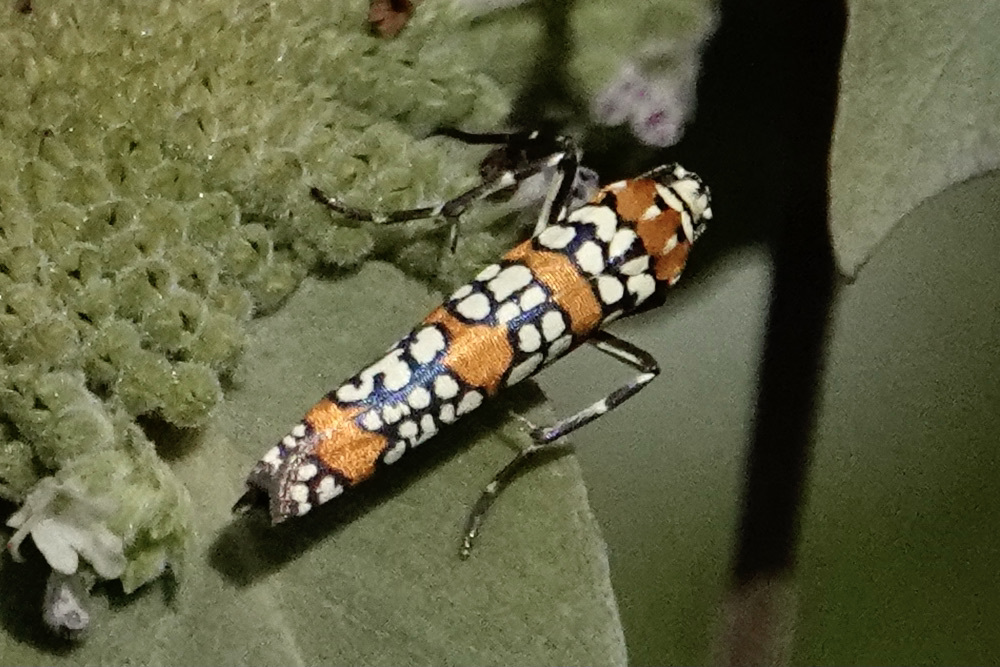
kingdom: Animalia
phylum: Arthropoda
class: Insecta
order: Lepidoptera
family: Attevidae
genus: Atteva
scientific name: Atteva punctella
